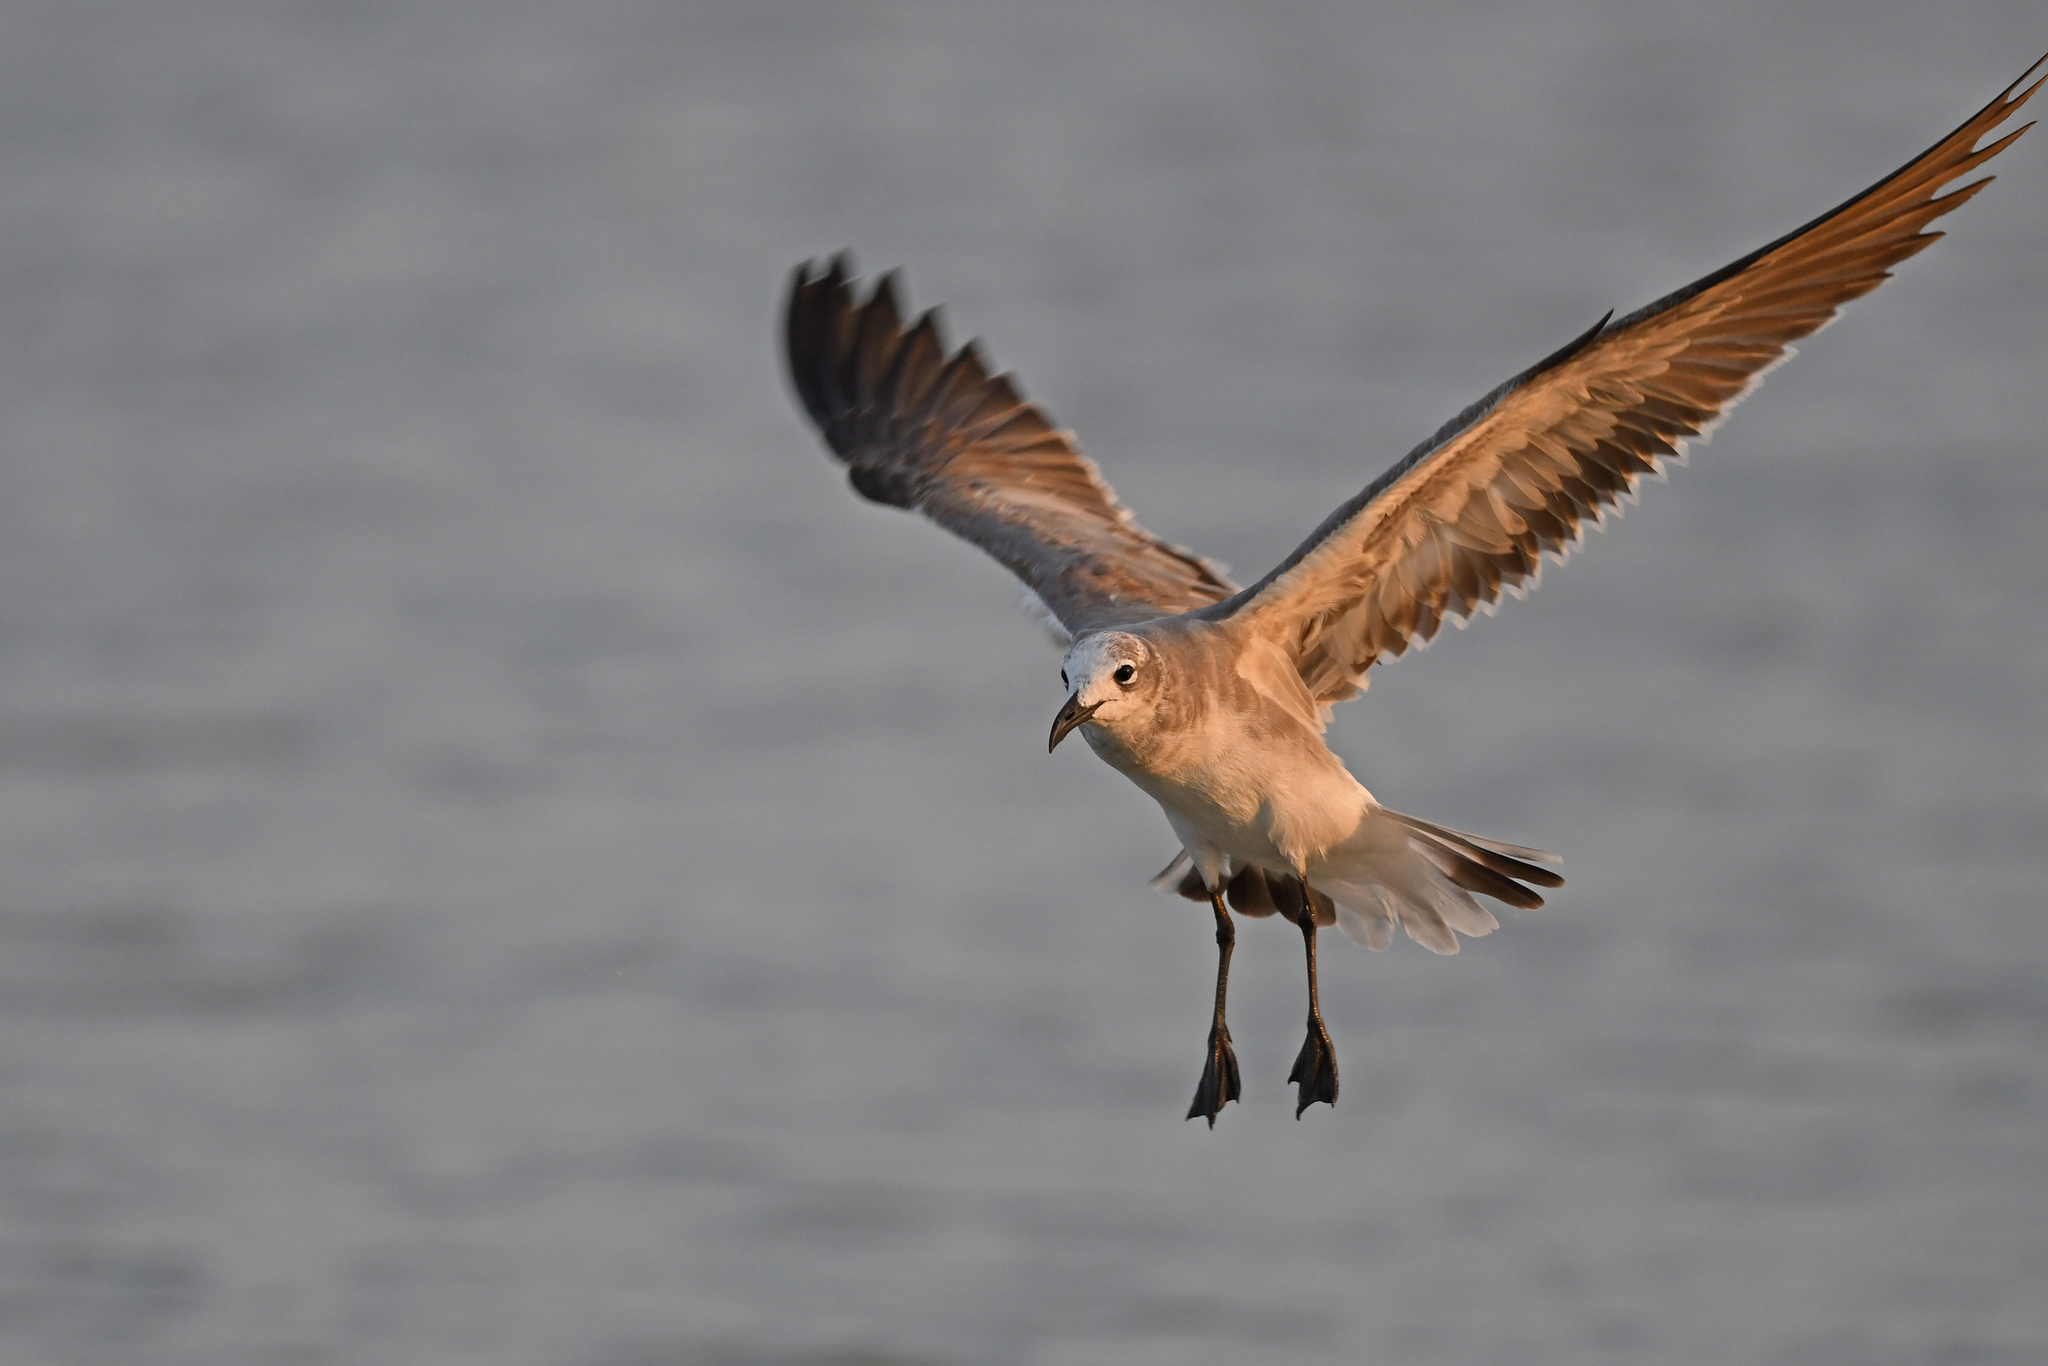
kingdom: Animalia
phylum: Chordata
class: Aves
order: Charadriiformes
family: Laridae
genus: Leucophaeus
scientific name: Leucophaeus atricilla
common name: Laughing gull
